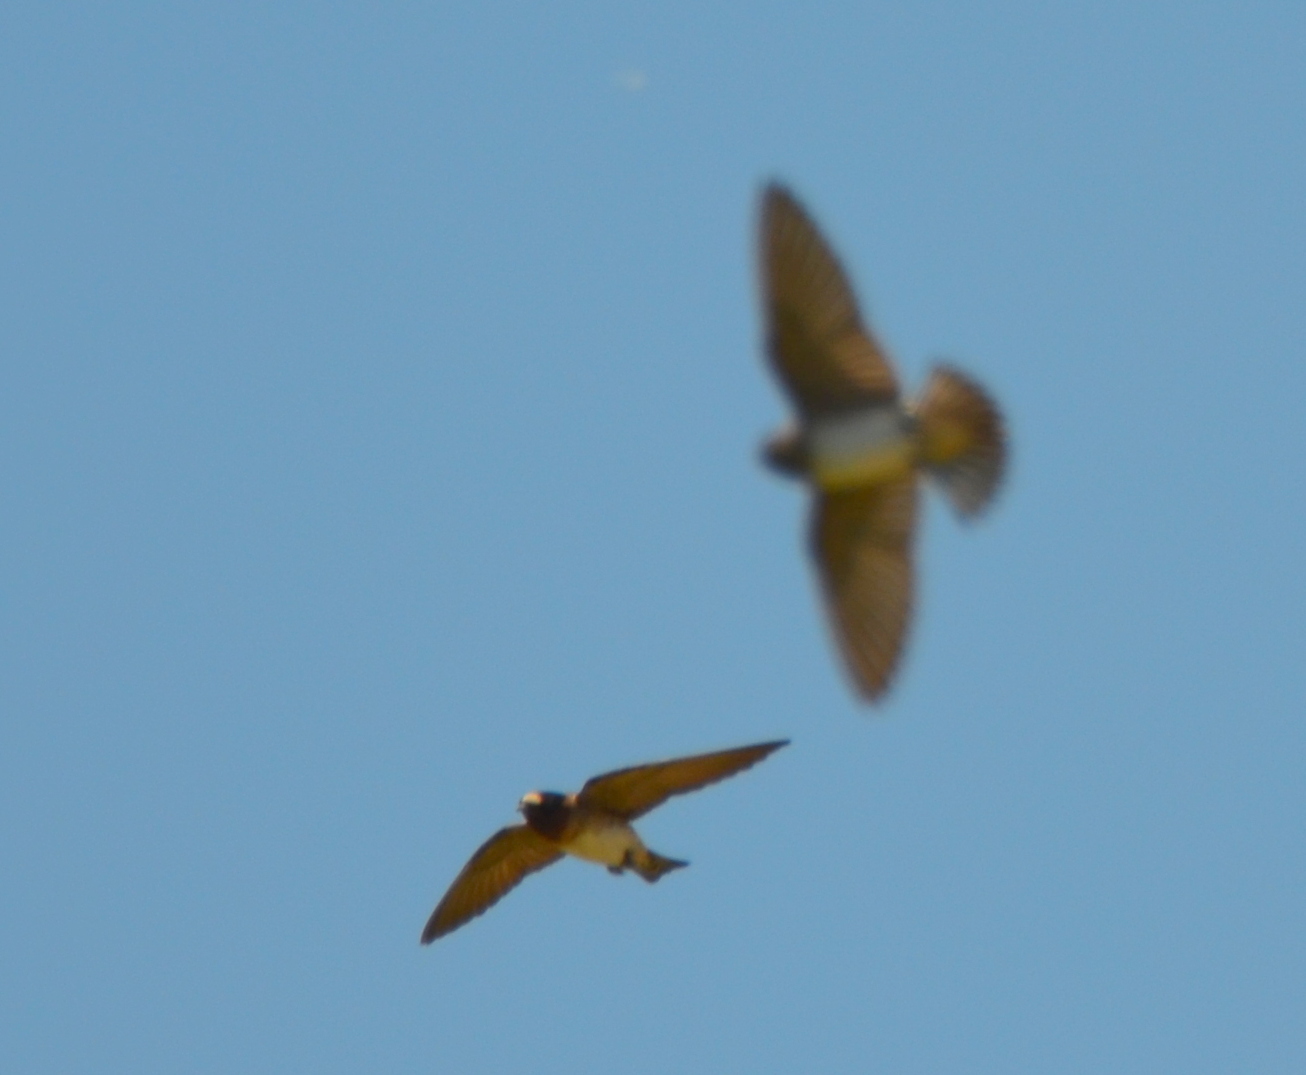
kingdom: Animalia
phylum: Chordata
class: Aves
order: Passeriformes
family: Hirundinidae
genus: Petrochelidon
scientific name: Petrochelidon pyrrhonota
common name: American cliff swallow
